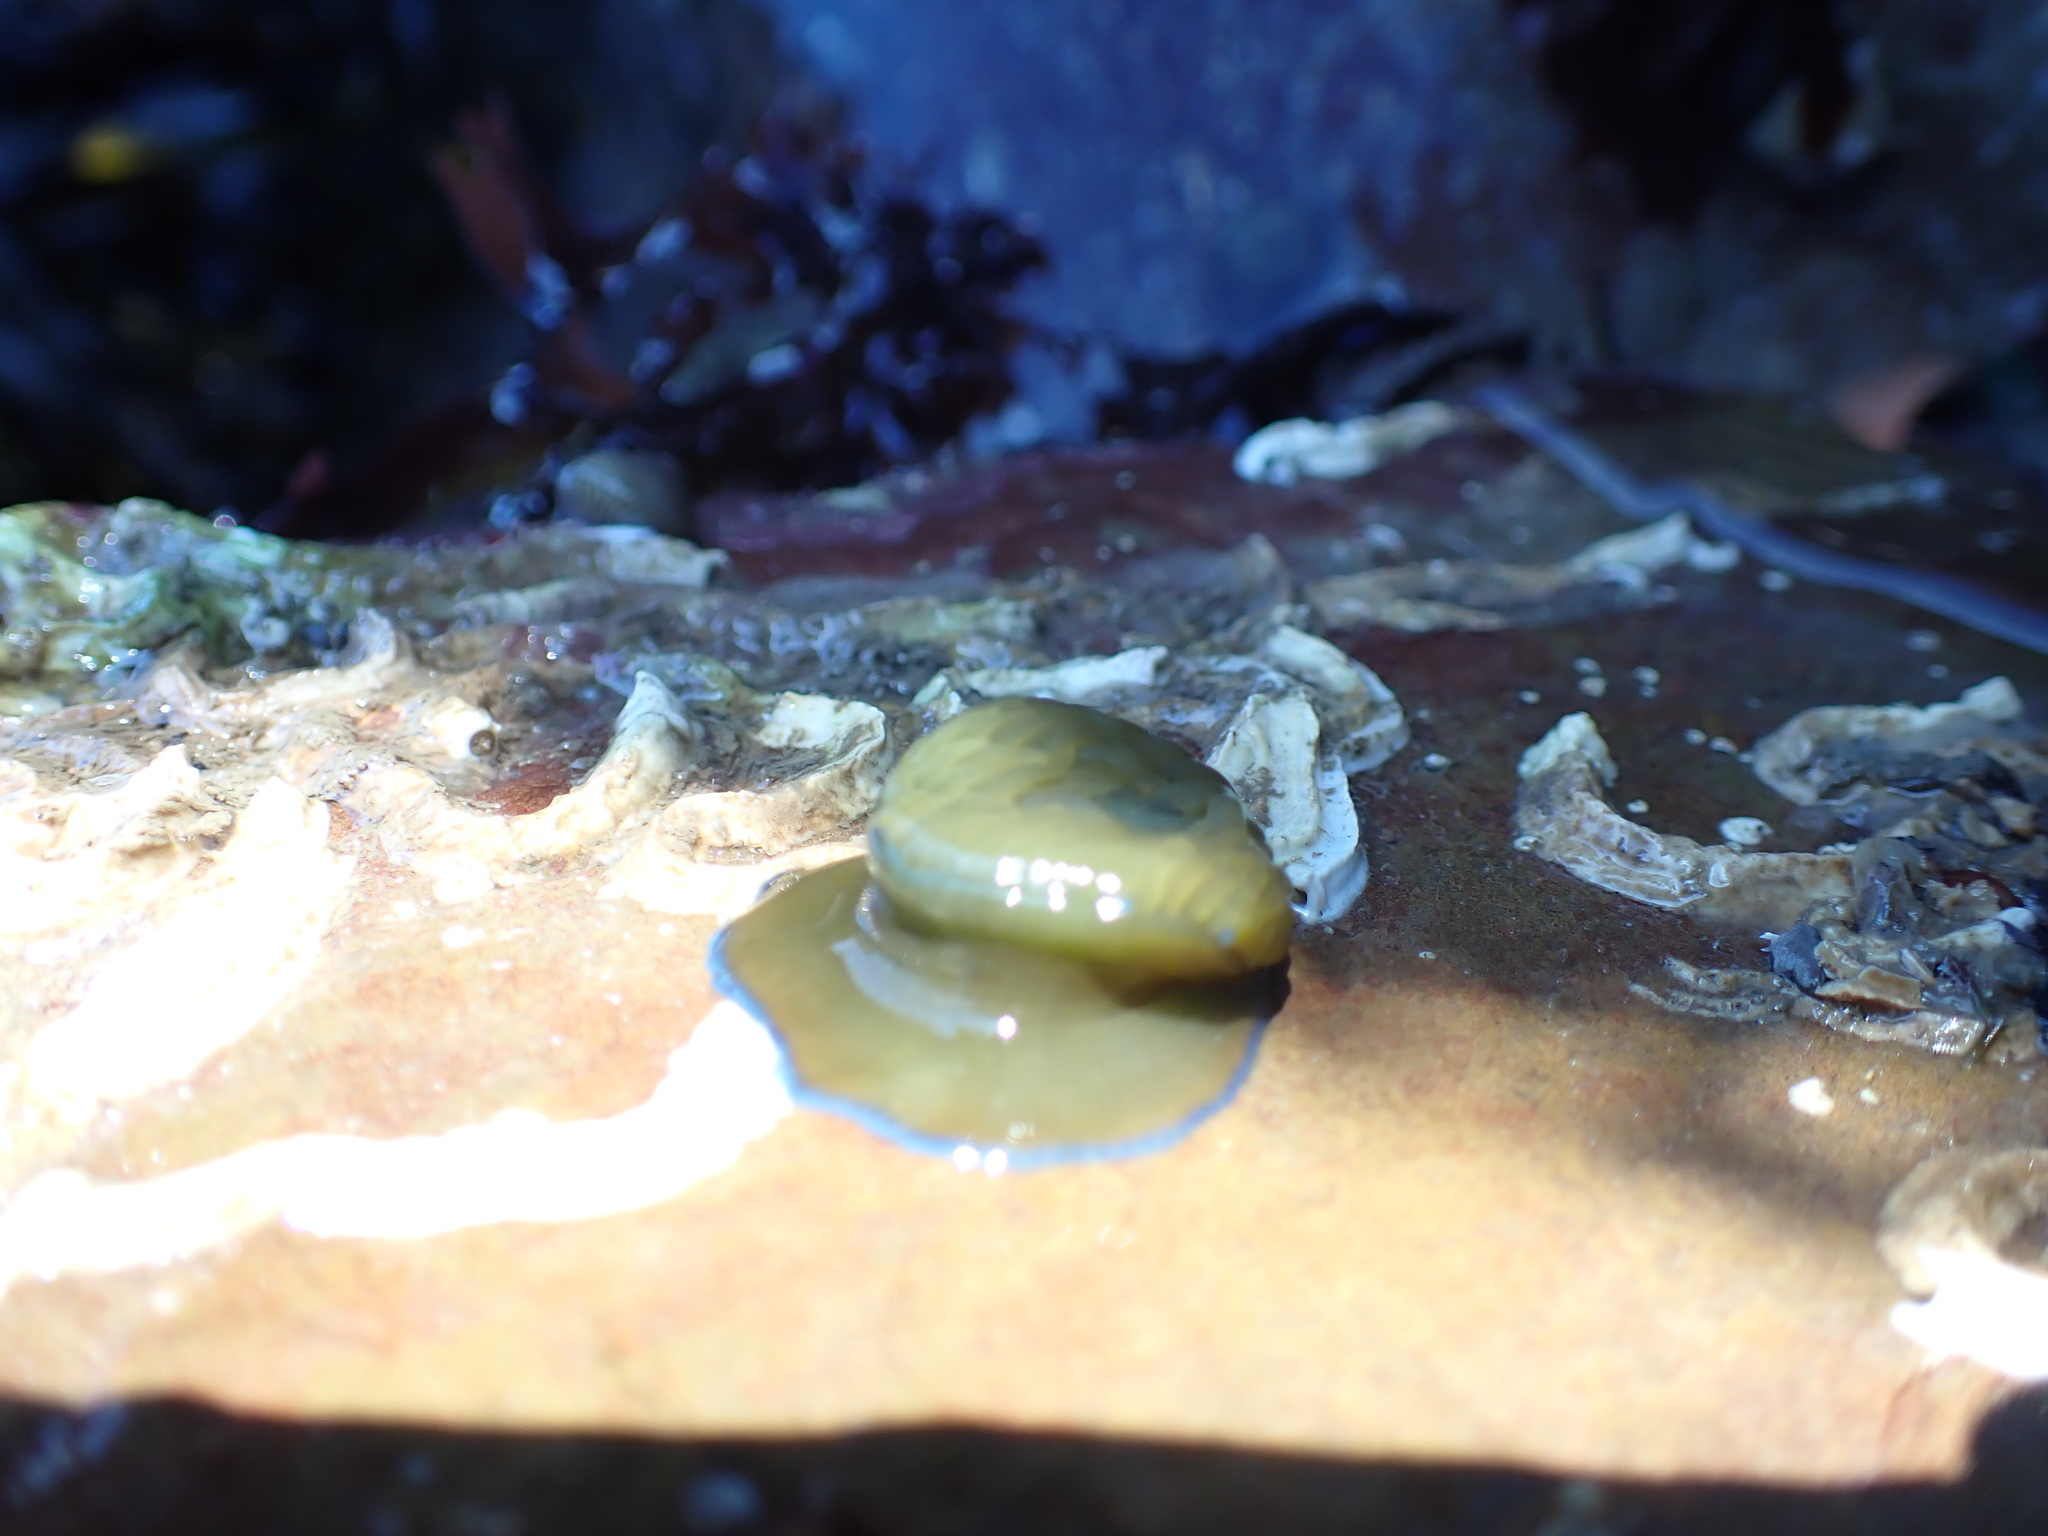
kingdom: Animalia
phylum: Cnidaria
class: Anthozoa
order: Actiniaria
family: Actiniidae
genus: Actinia
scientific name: Actinia equina
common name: Beadlet anemone
